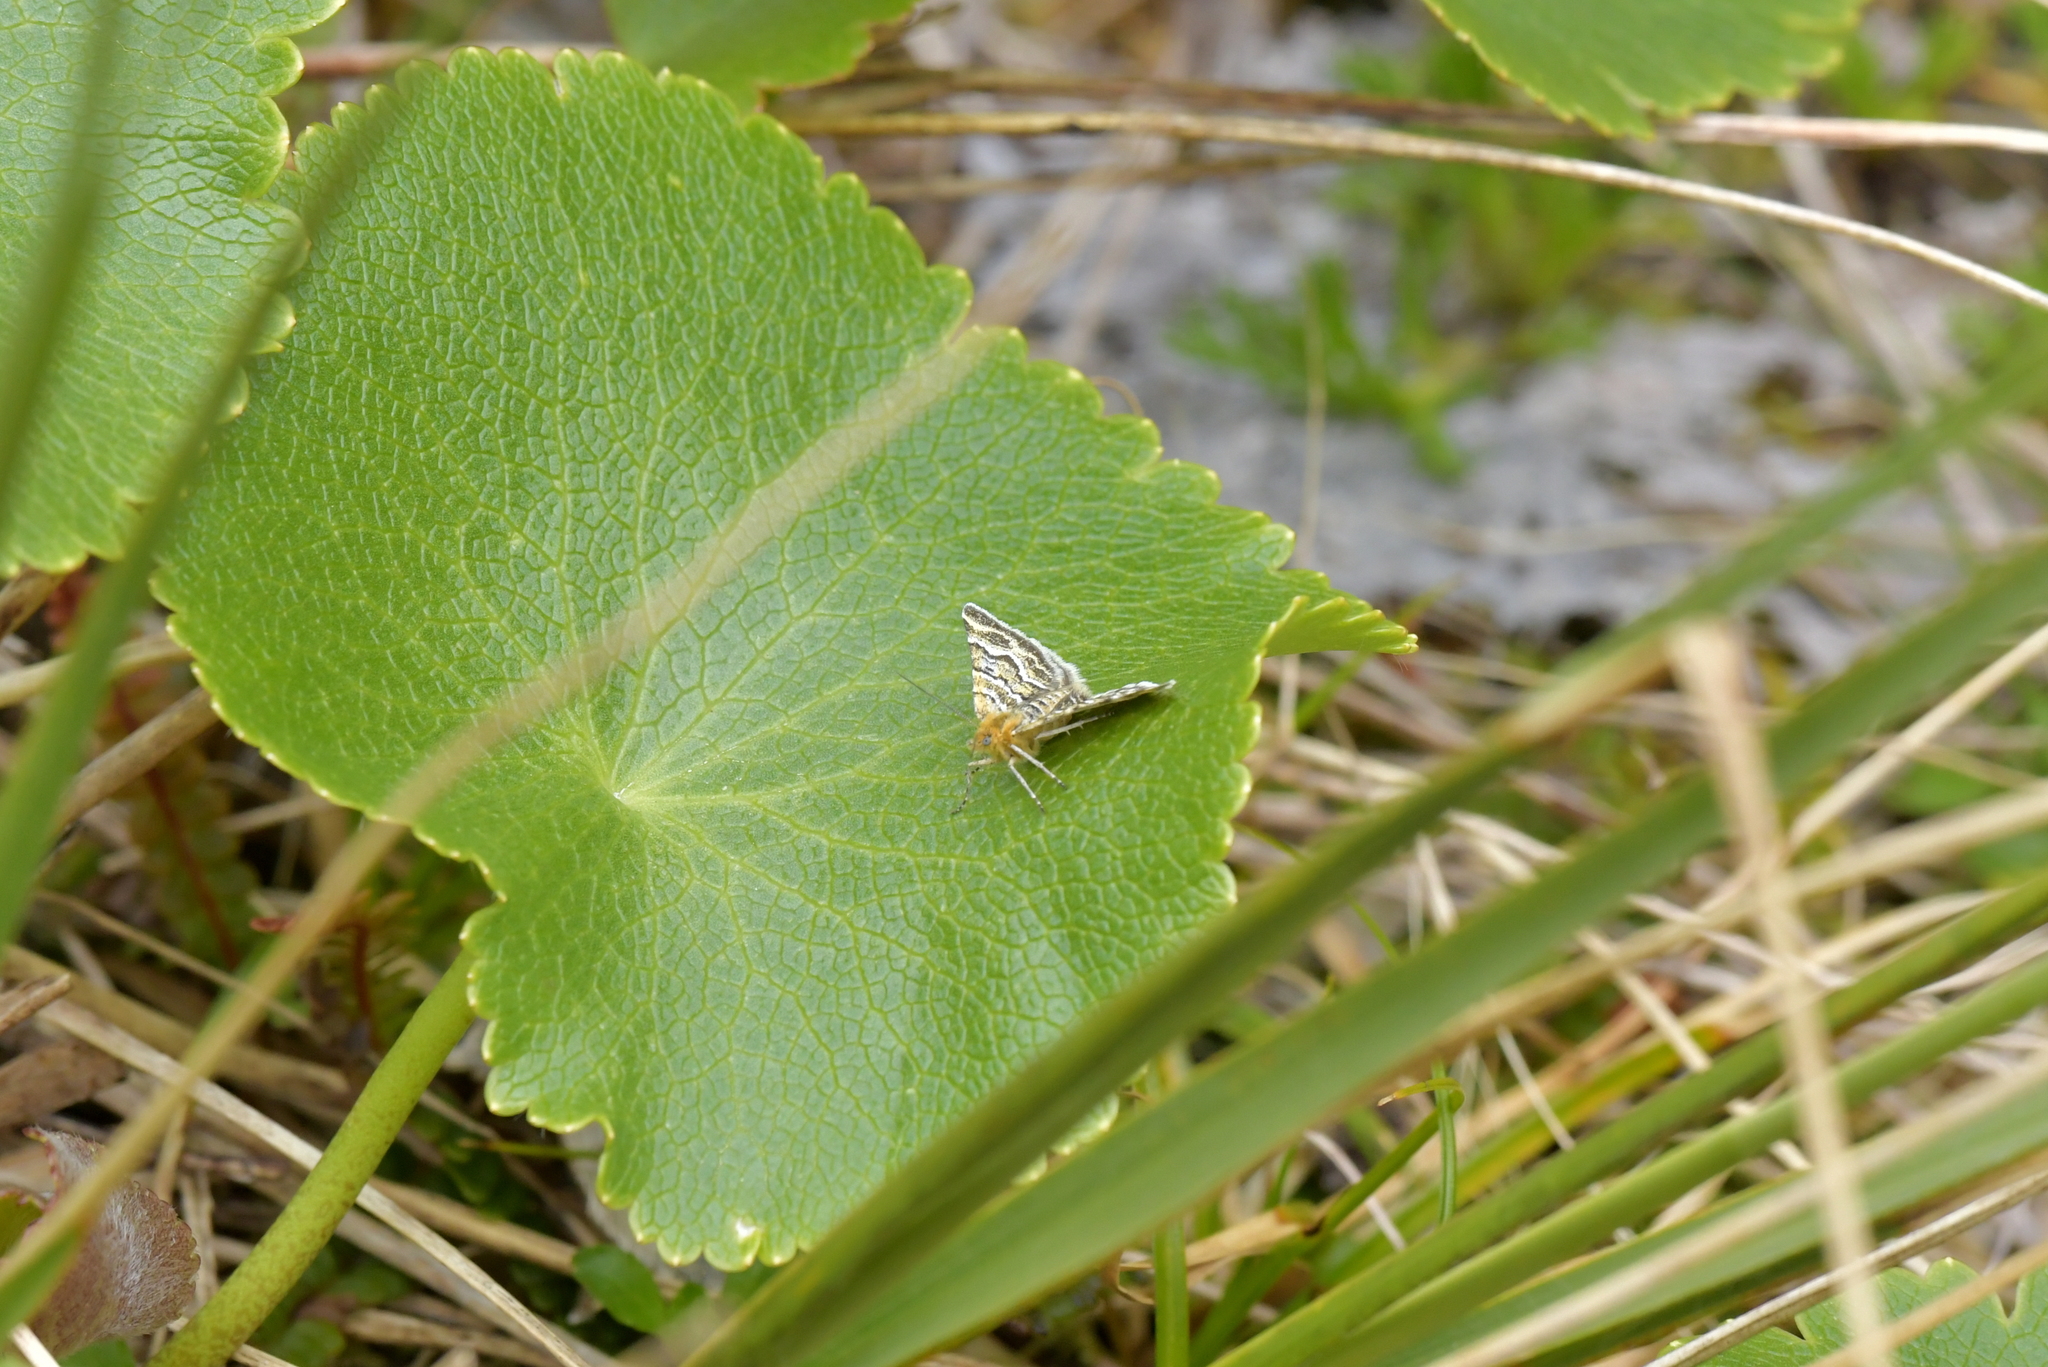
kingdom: Animalia
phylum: Arthropoda
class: Insecta
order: Lepidoptera
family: Geometridae
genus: Notoreas
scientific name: Notoreas paradelpha
